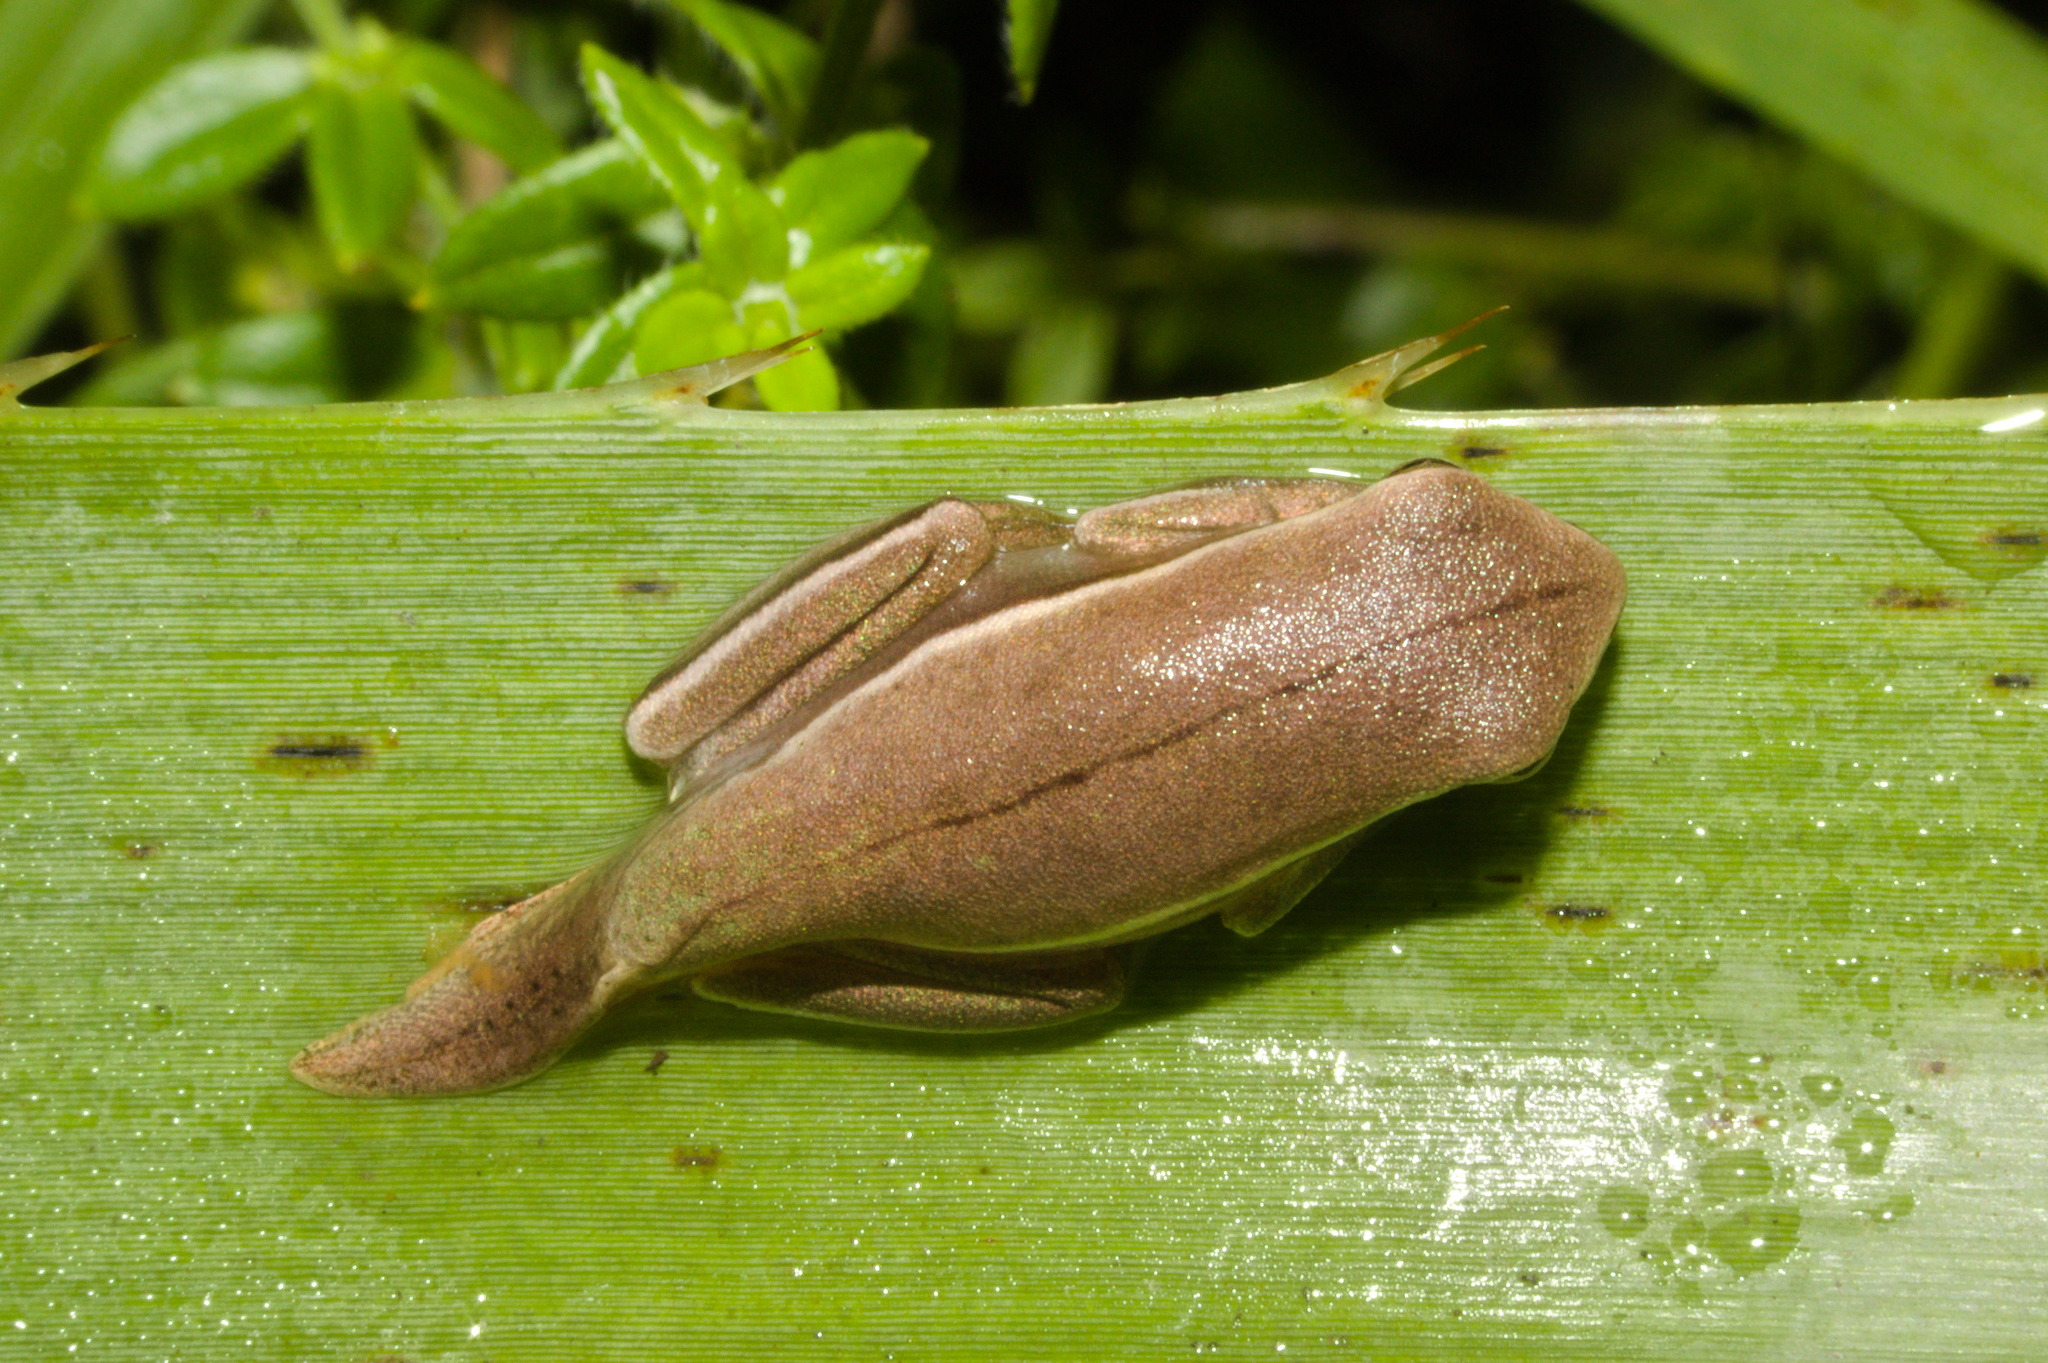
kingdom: Animalia
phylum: Chordata
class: Amphibia
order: Anura
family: Hylidae
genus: Boana
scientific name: Boana bischoffi
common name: Bischoff's treefrog
